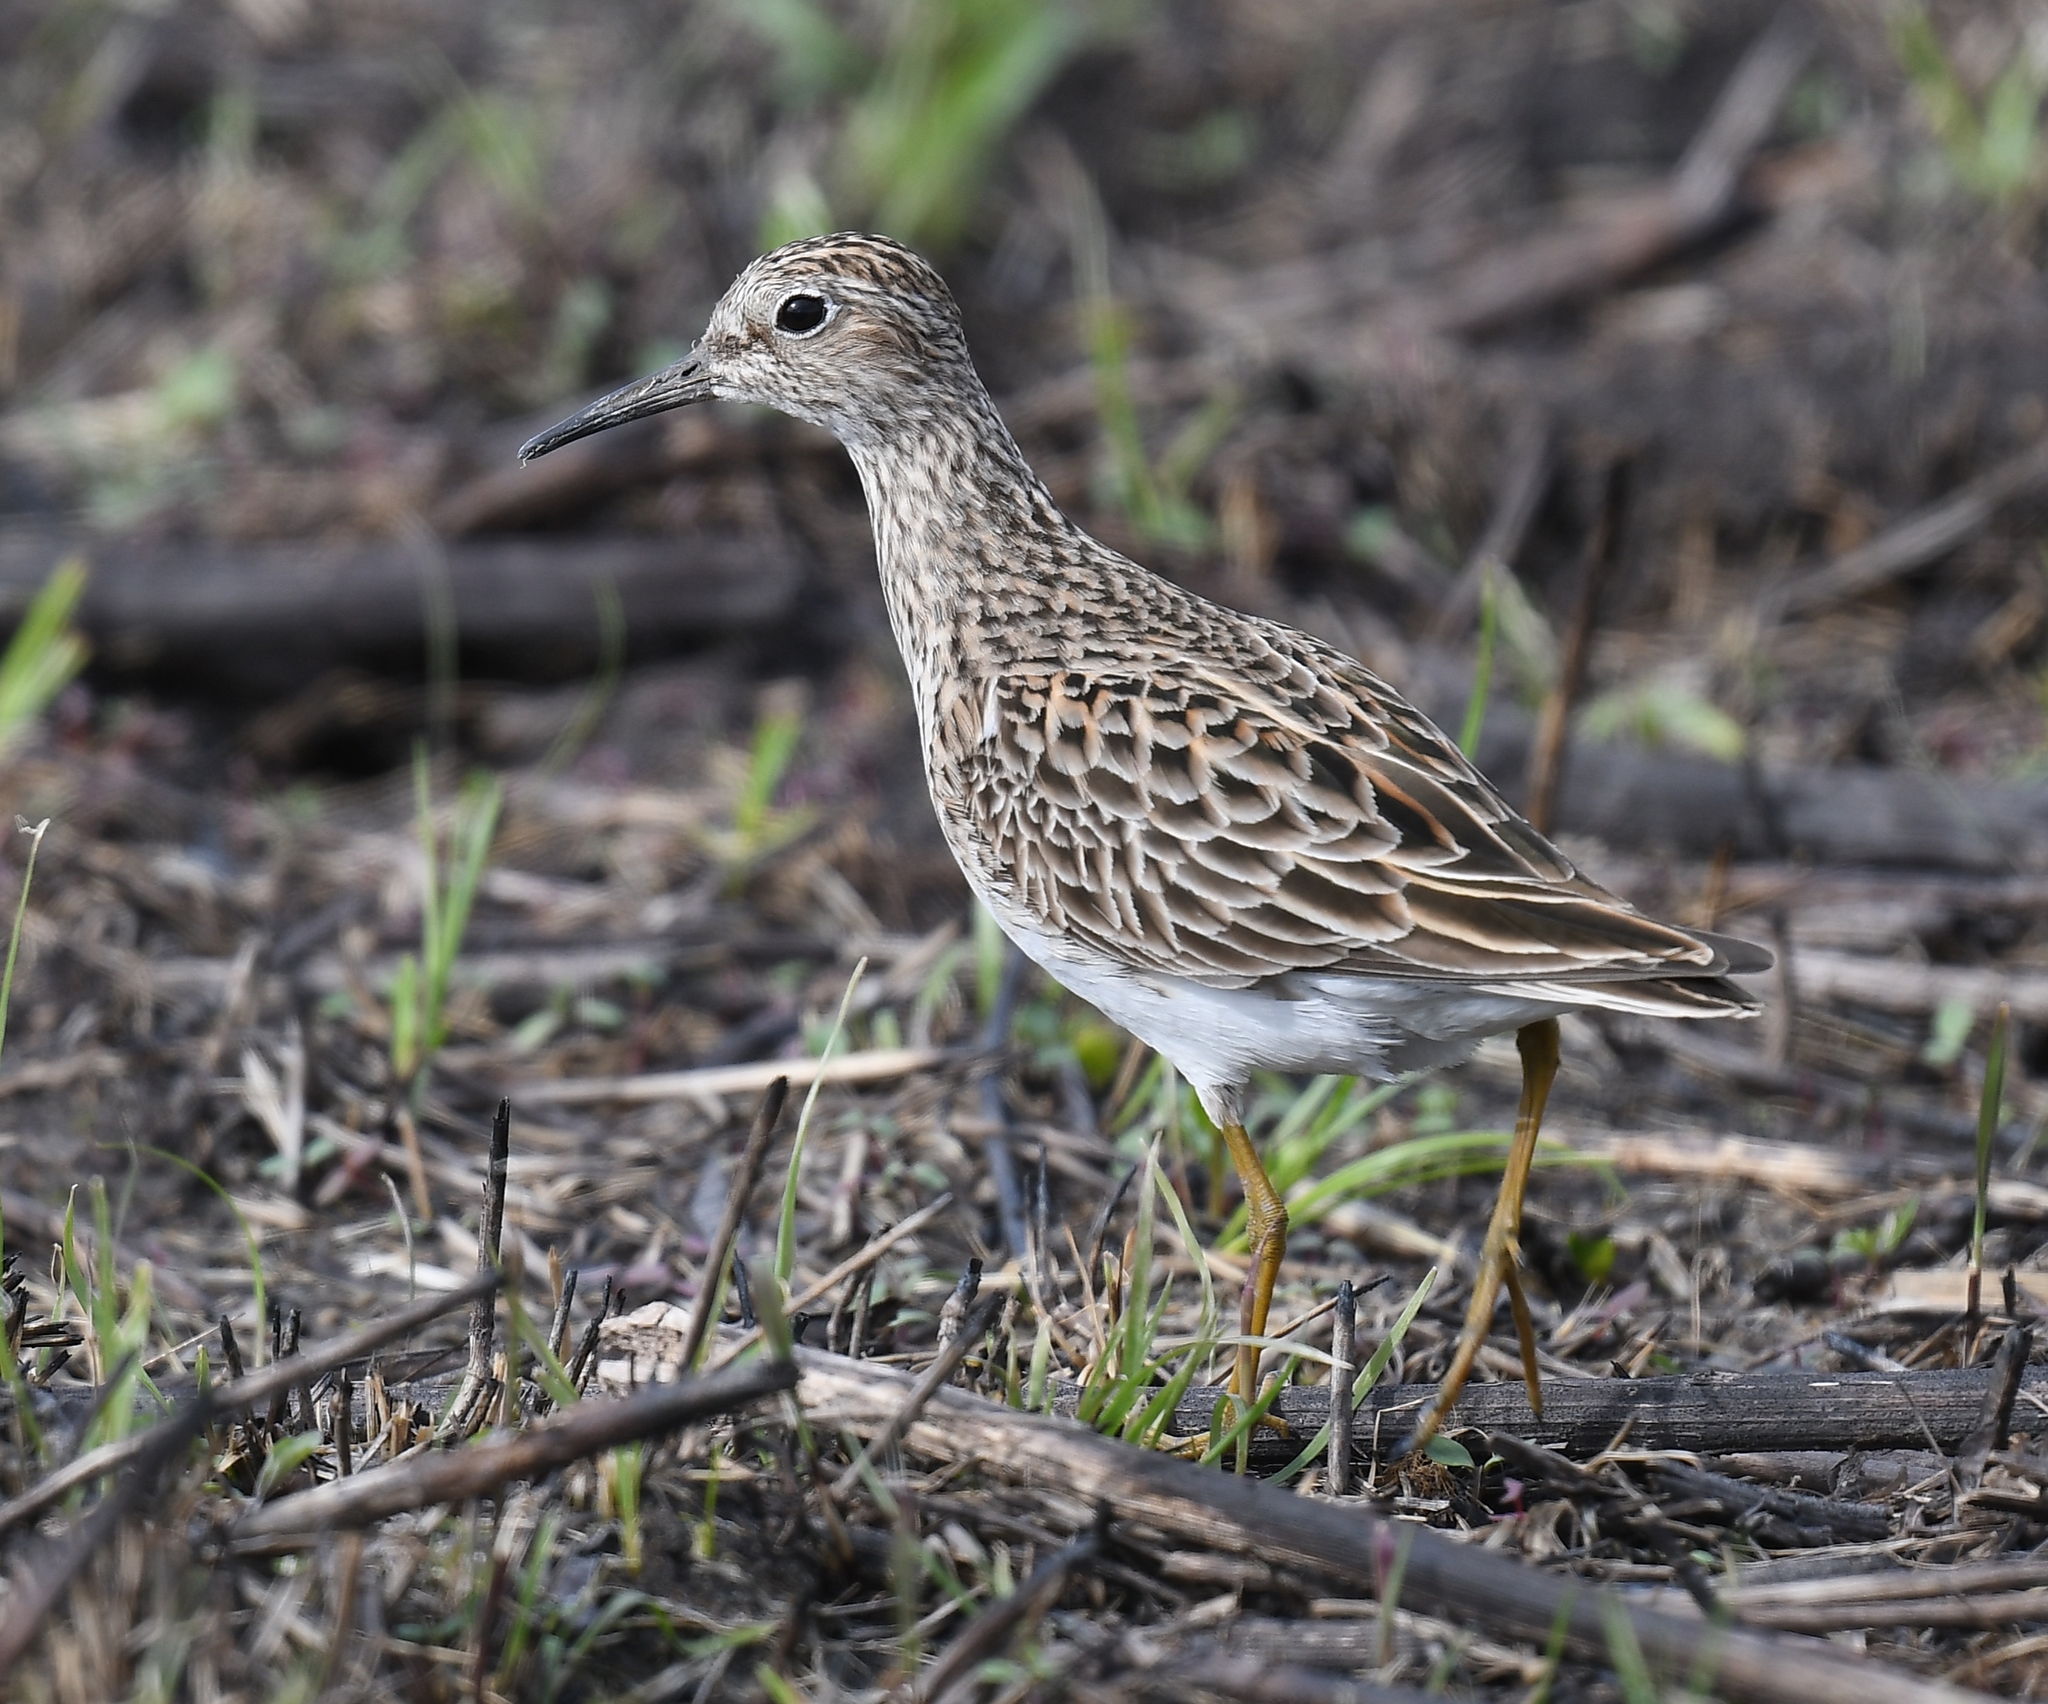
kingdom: Animalia
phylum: Chordata
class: Aves
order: Charadriiformes
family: Scolopacidae
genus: Calidris
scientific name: Calidris melanotos
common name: Pectoral sandpiper
